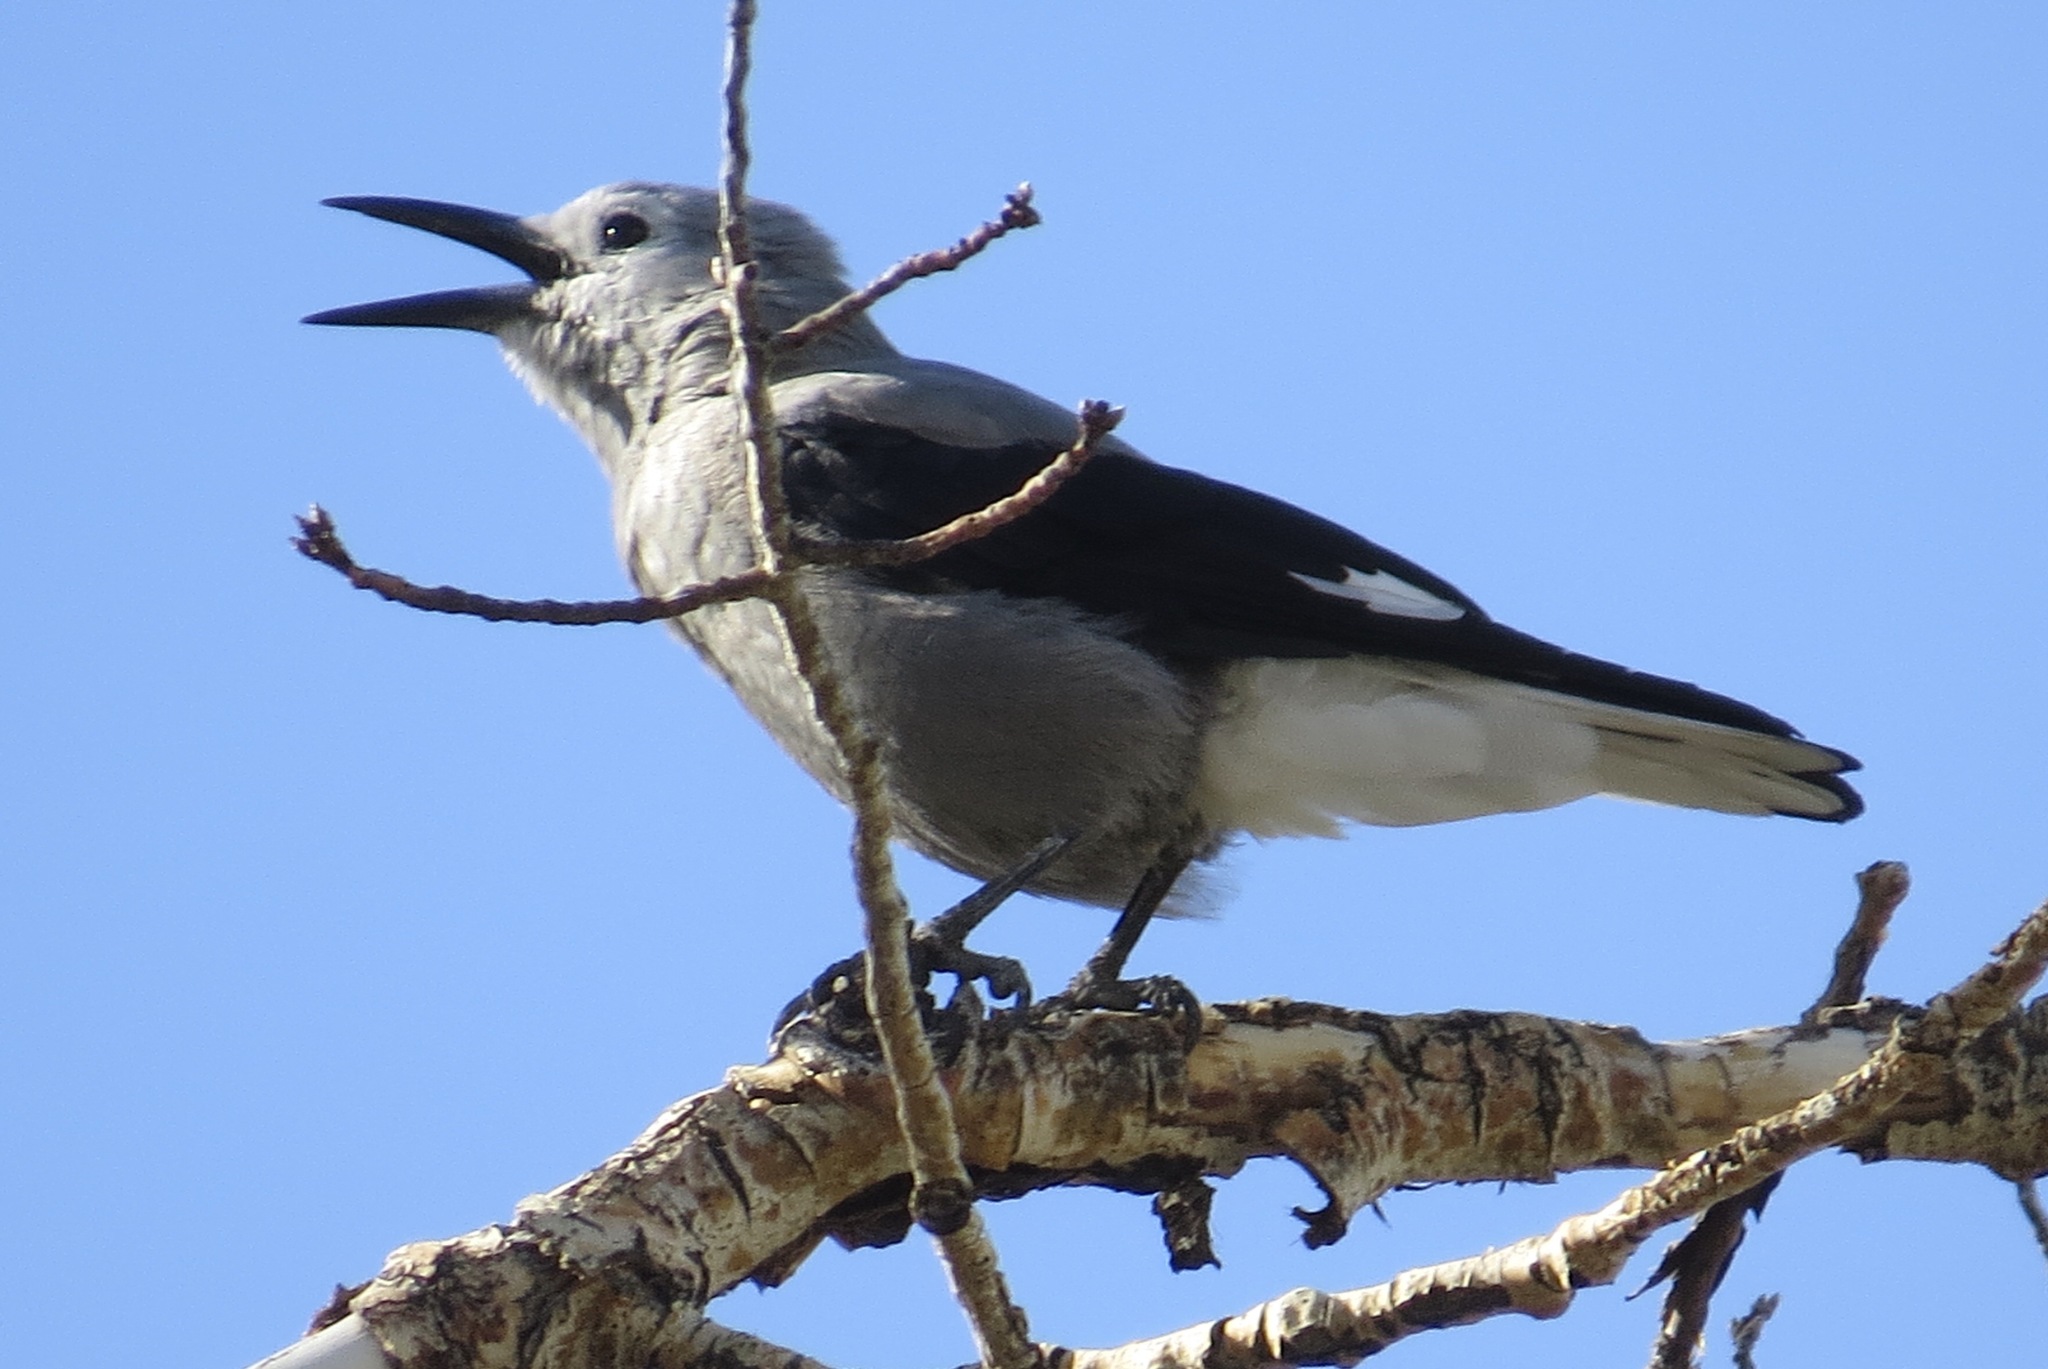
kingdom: Animalia
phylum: Chordata
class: Aves
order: Passeriformes
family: Corvidae
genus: Nucifraga
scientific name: Nucifraga columbiana
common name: Clark's nutcracker
